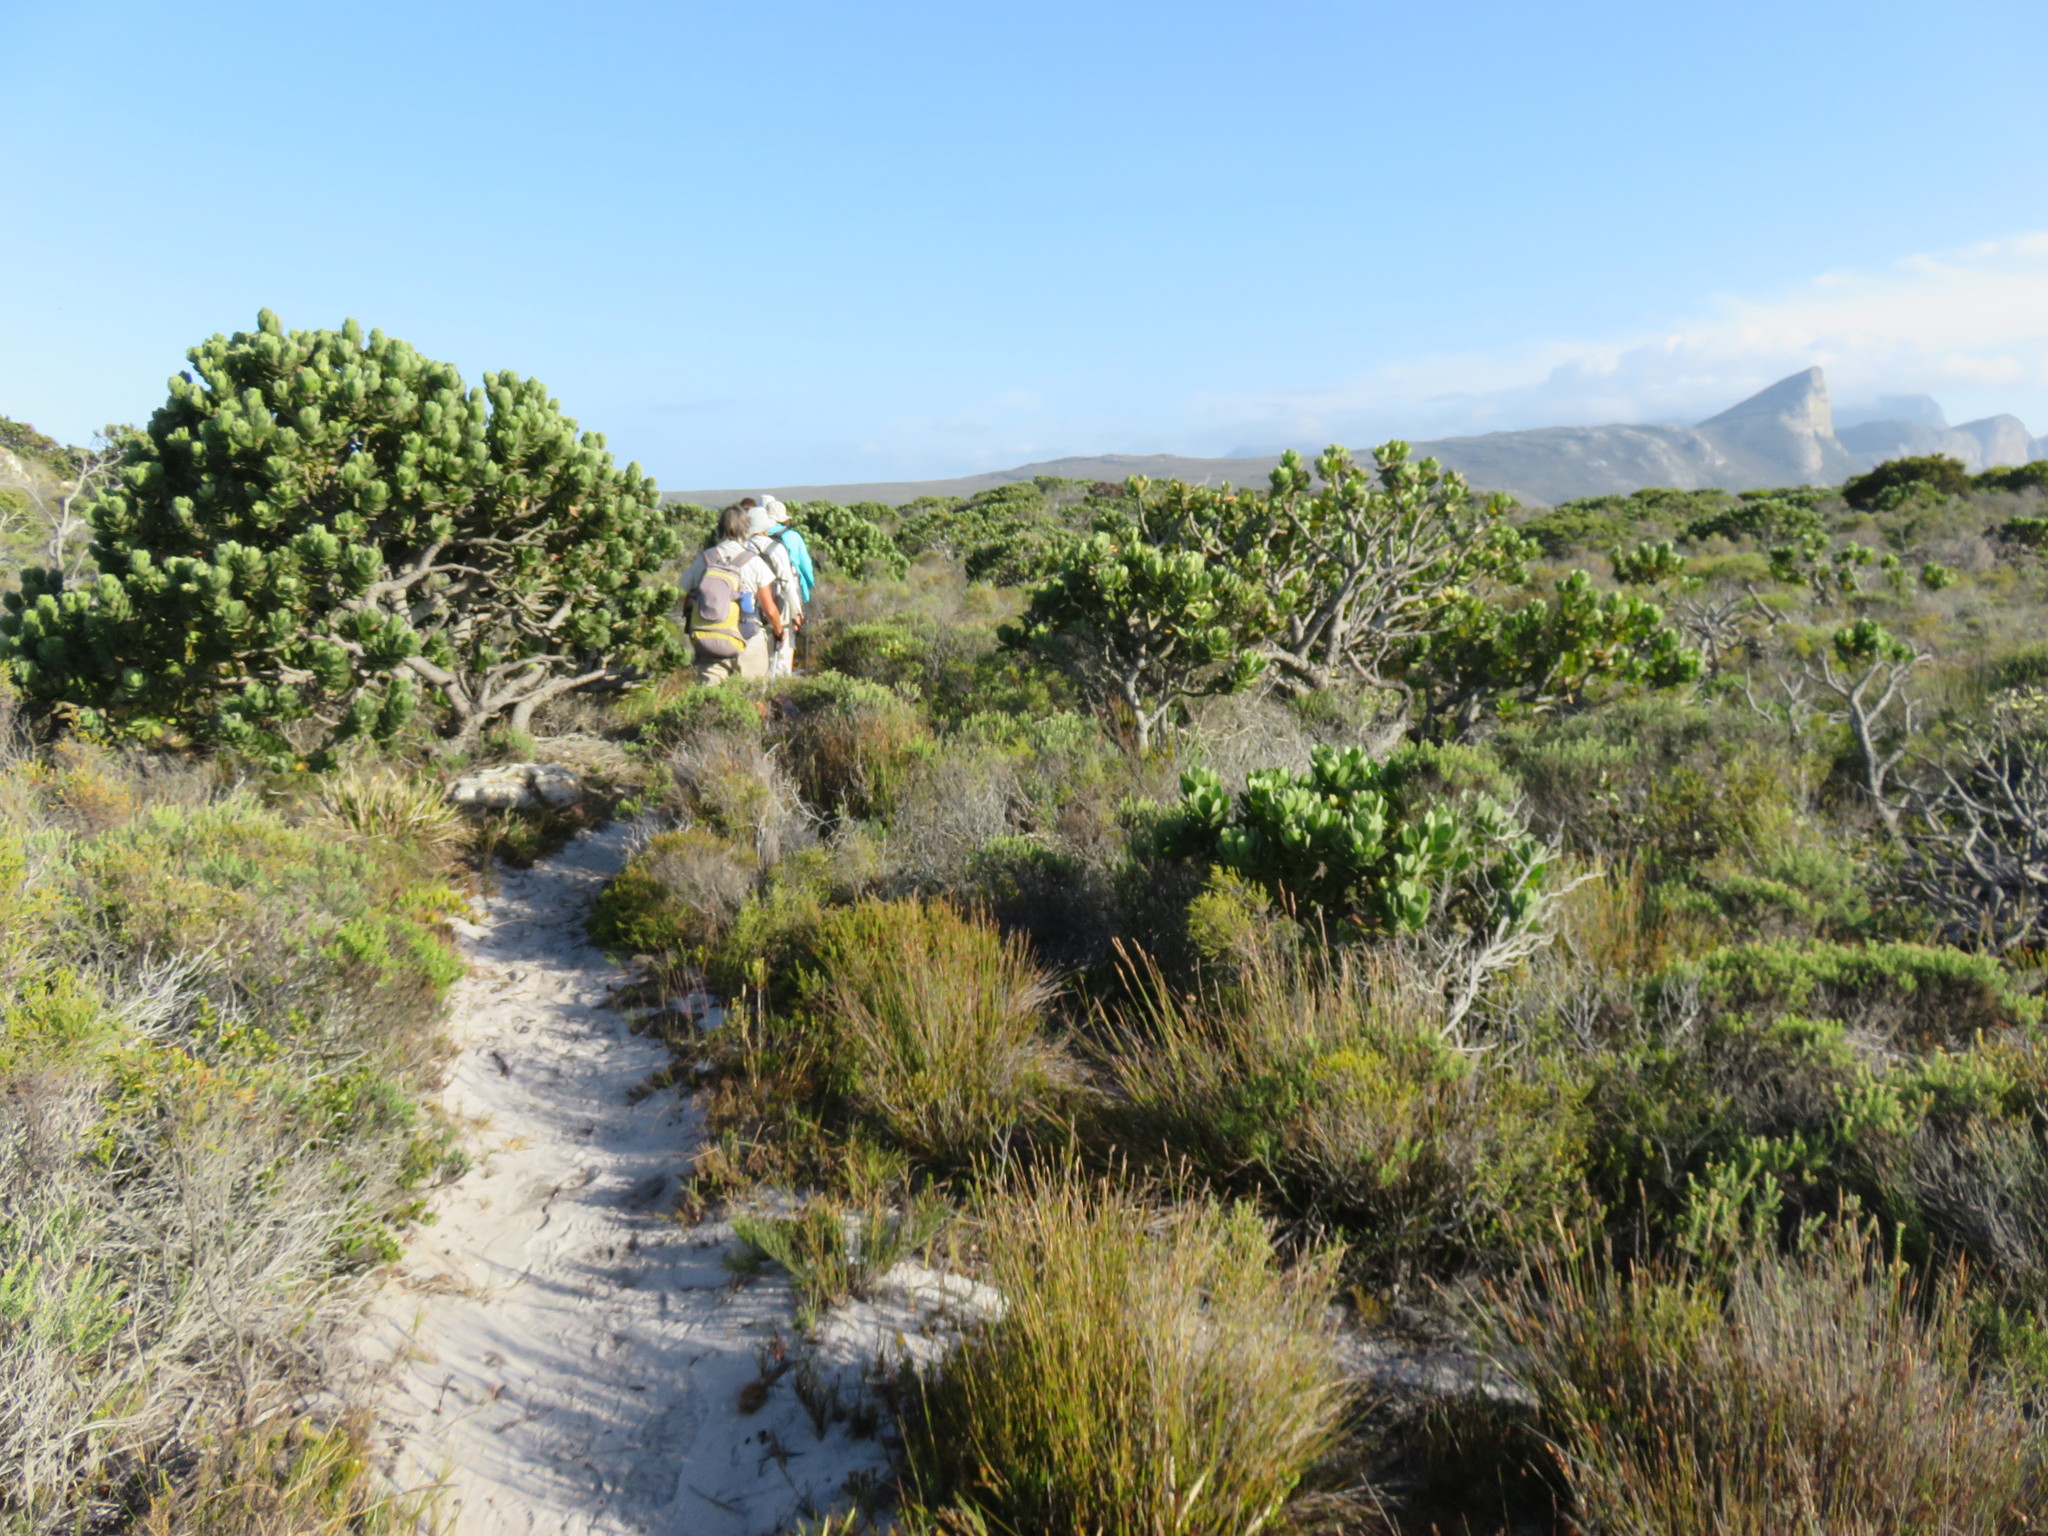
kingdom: Plantae
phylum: Tracheophyta
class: Magnoliopsida
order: Proteales
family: Proteaceae
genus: Mimetes
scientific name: Mimetes fimbriifolius
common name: Fringed bottlebrush
